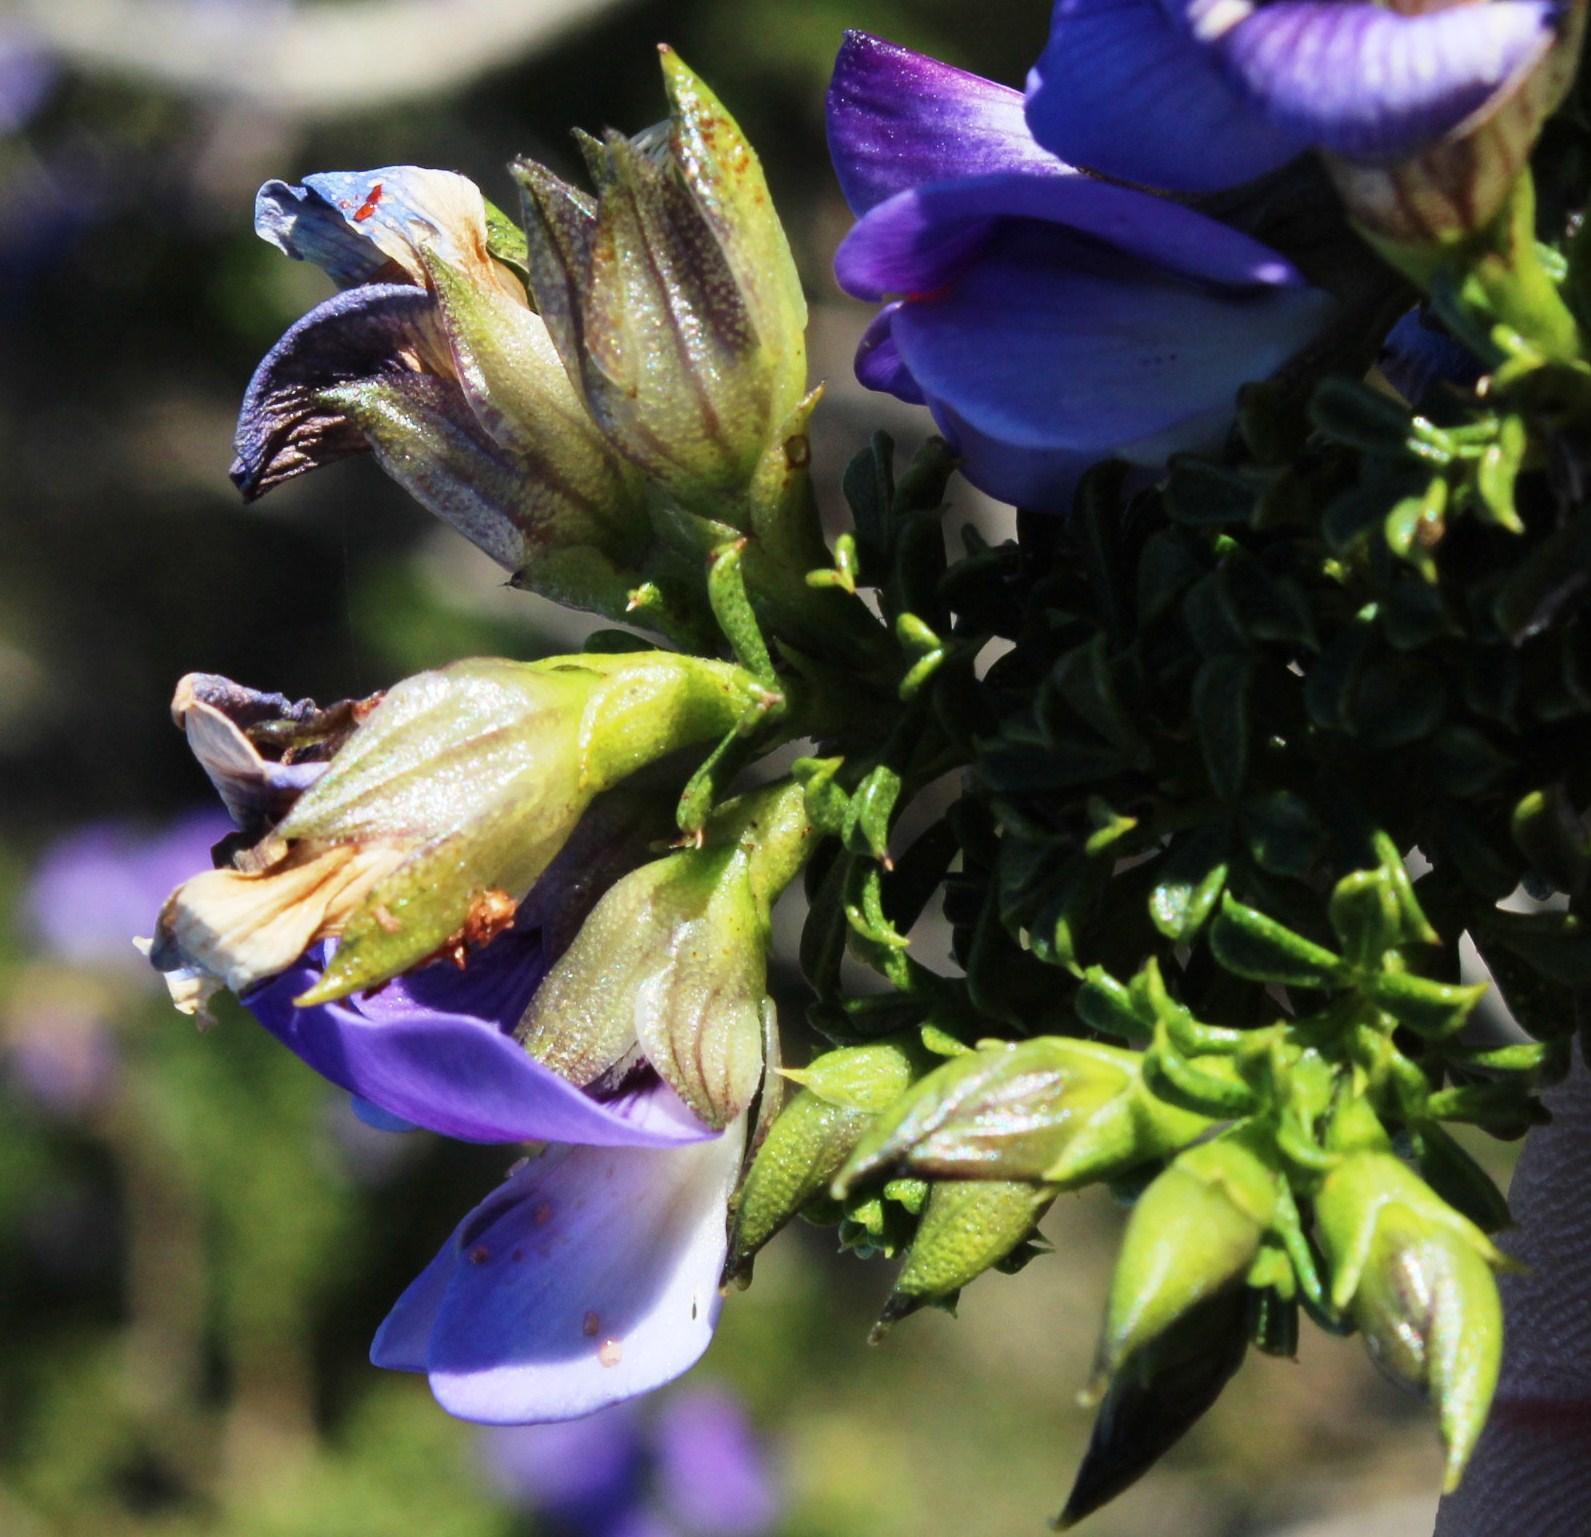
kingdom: Plantae
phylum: Tracheophyta
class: Magnoliopsida
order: Fabales
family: Fabaceae
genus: Psoralea
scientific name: Psoralea aculeata
